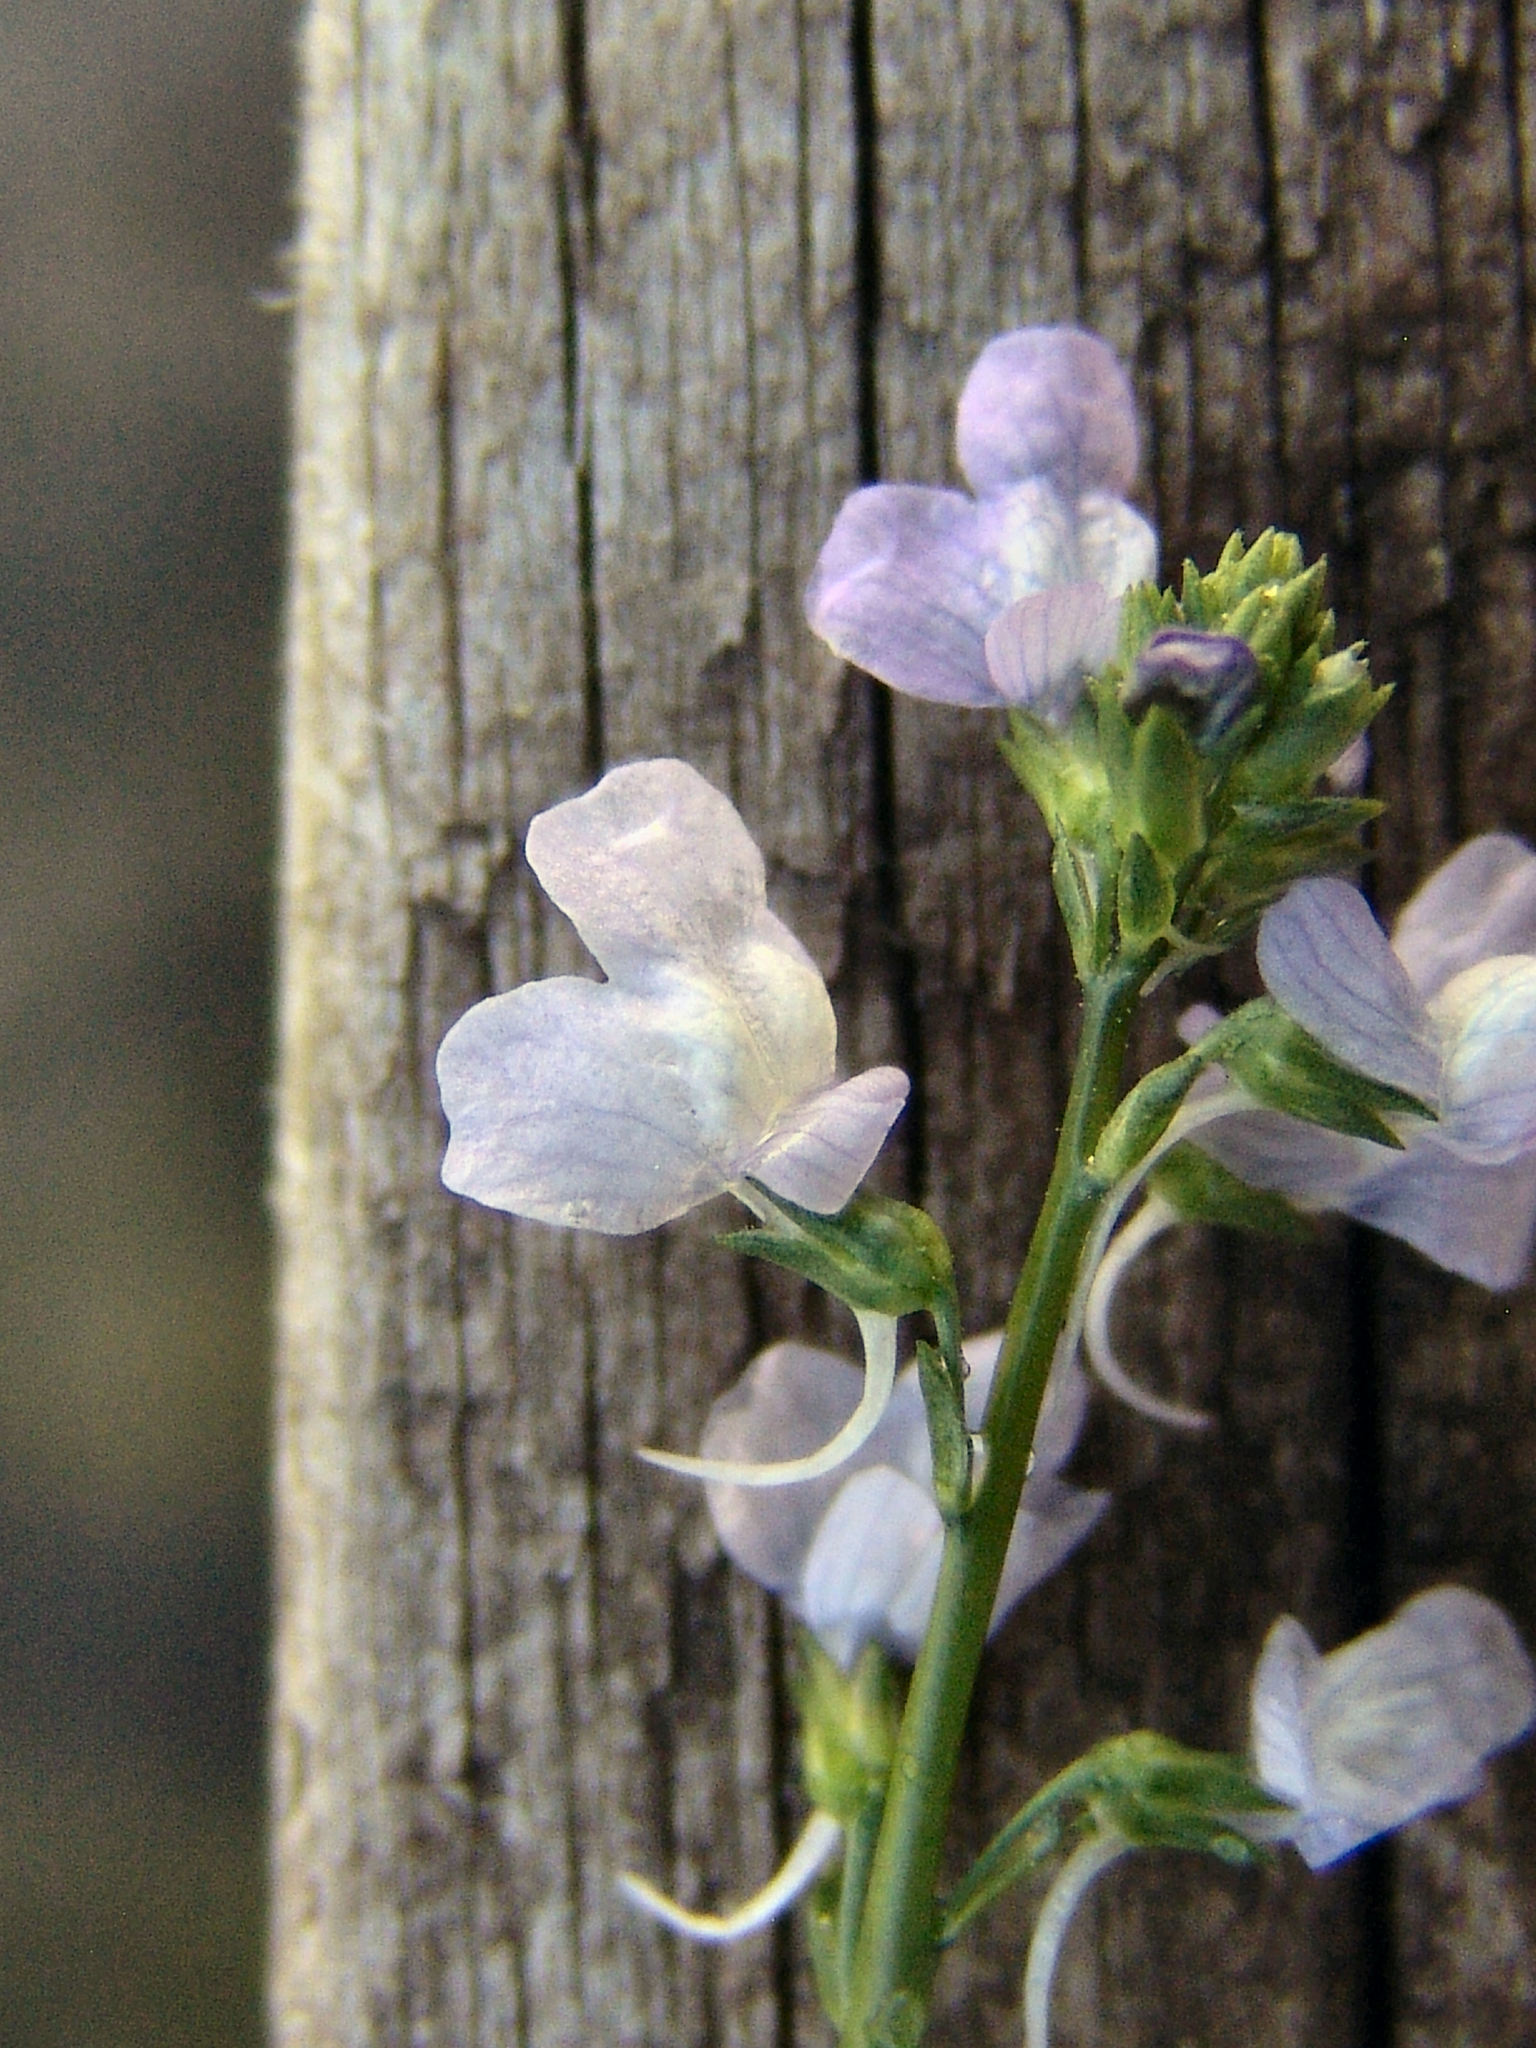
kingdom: Plantae
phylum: Tracheophyta
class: Magnoliopsida
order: Lamiales
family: Plantaginaceae
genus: Nuttallanthus
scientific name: Nuttallanthus texanus
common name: Texas toadflax
